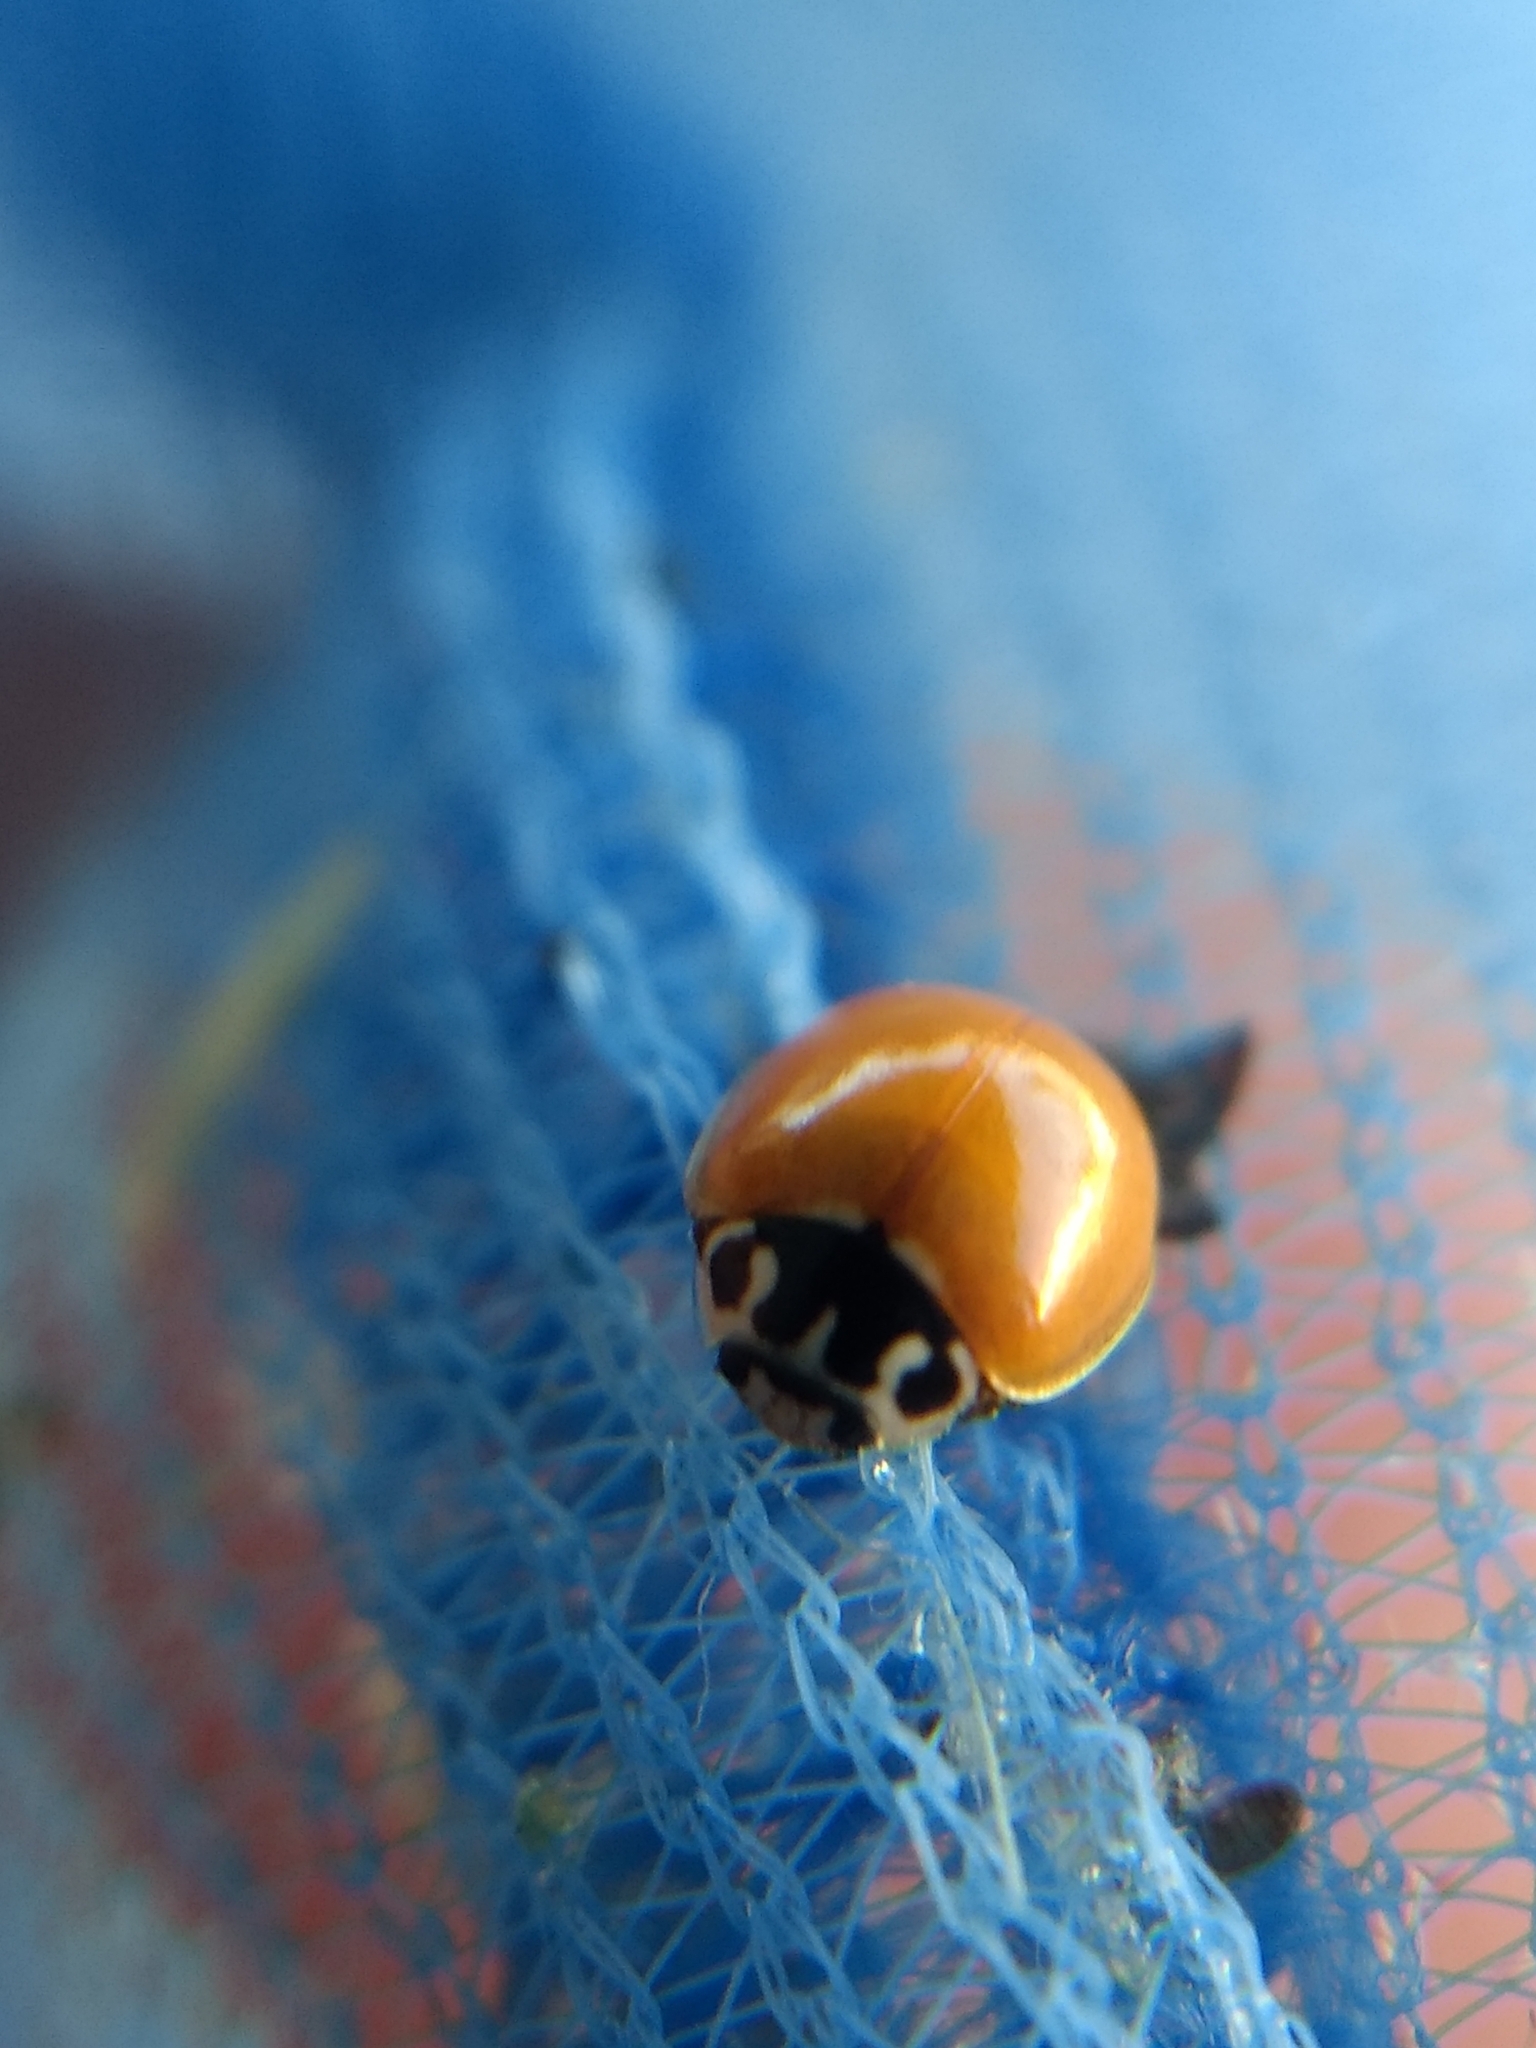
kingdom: Animalia
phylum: Arthropoda
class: Insecta
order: Coleoptera
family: Coccinellidae
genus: Cycloneda
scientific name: Cycloneda polita
